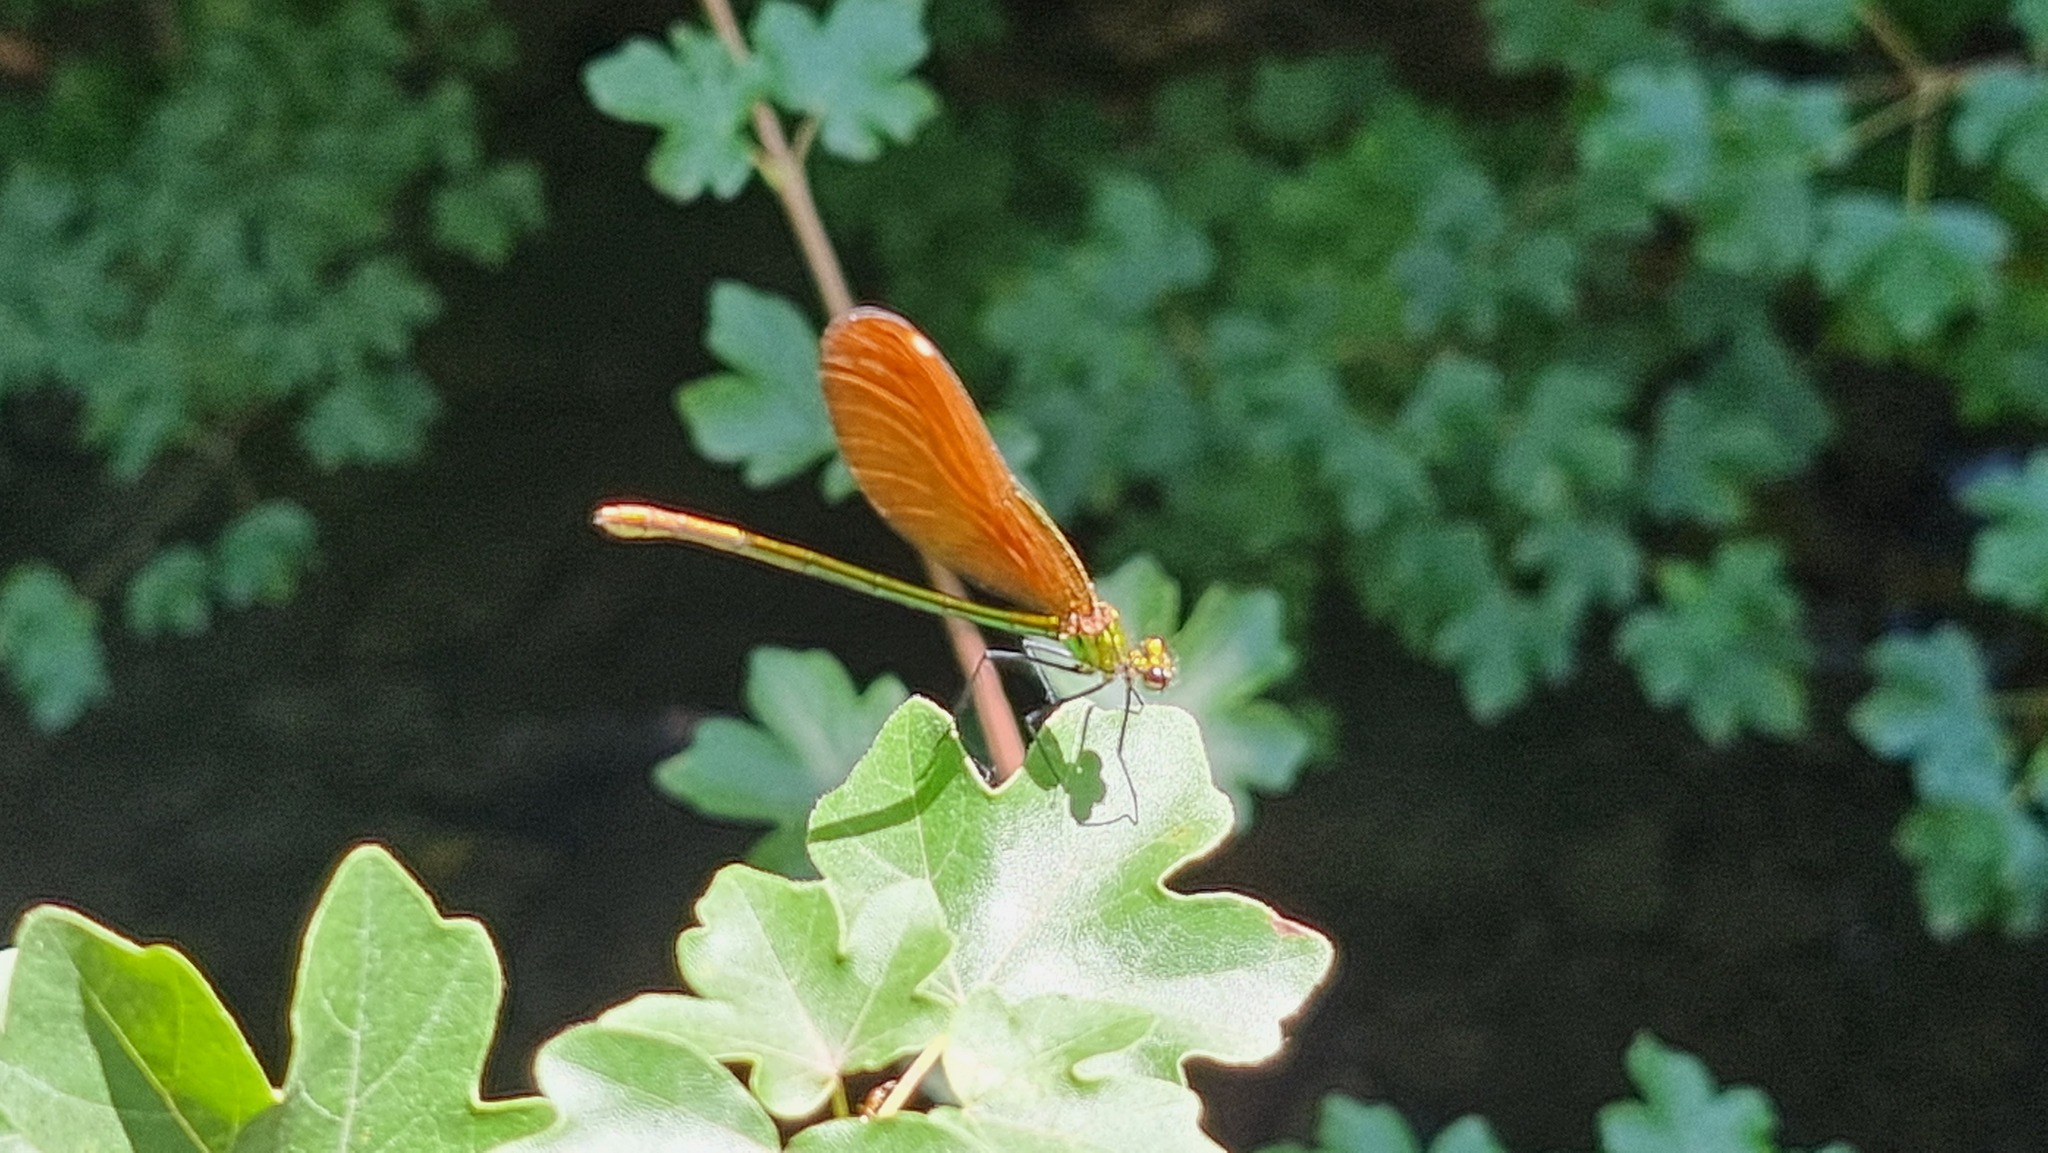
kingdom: Animalia
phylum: Arthropoda
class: Insecta
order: Odonata
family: Calopterygidae
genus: Calopteryx
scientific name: Calopteryx virgo
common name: Beautiful demoiselle
